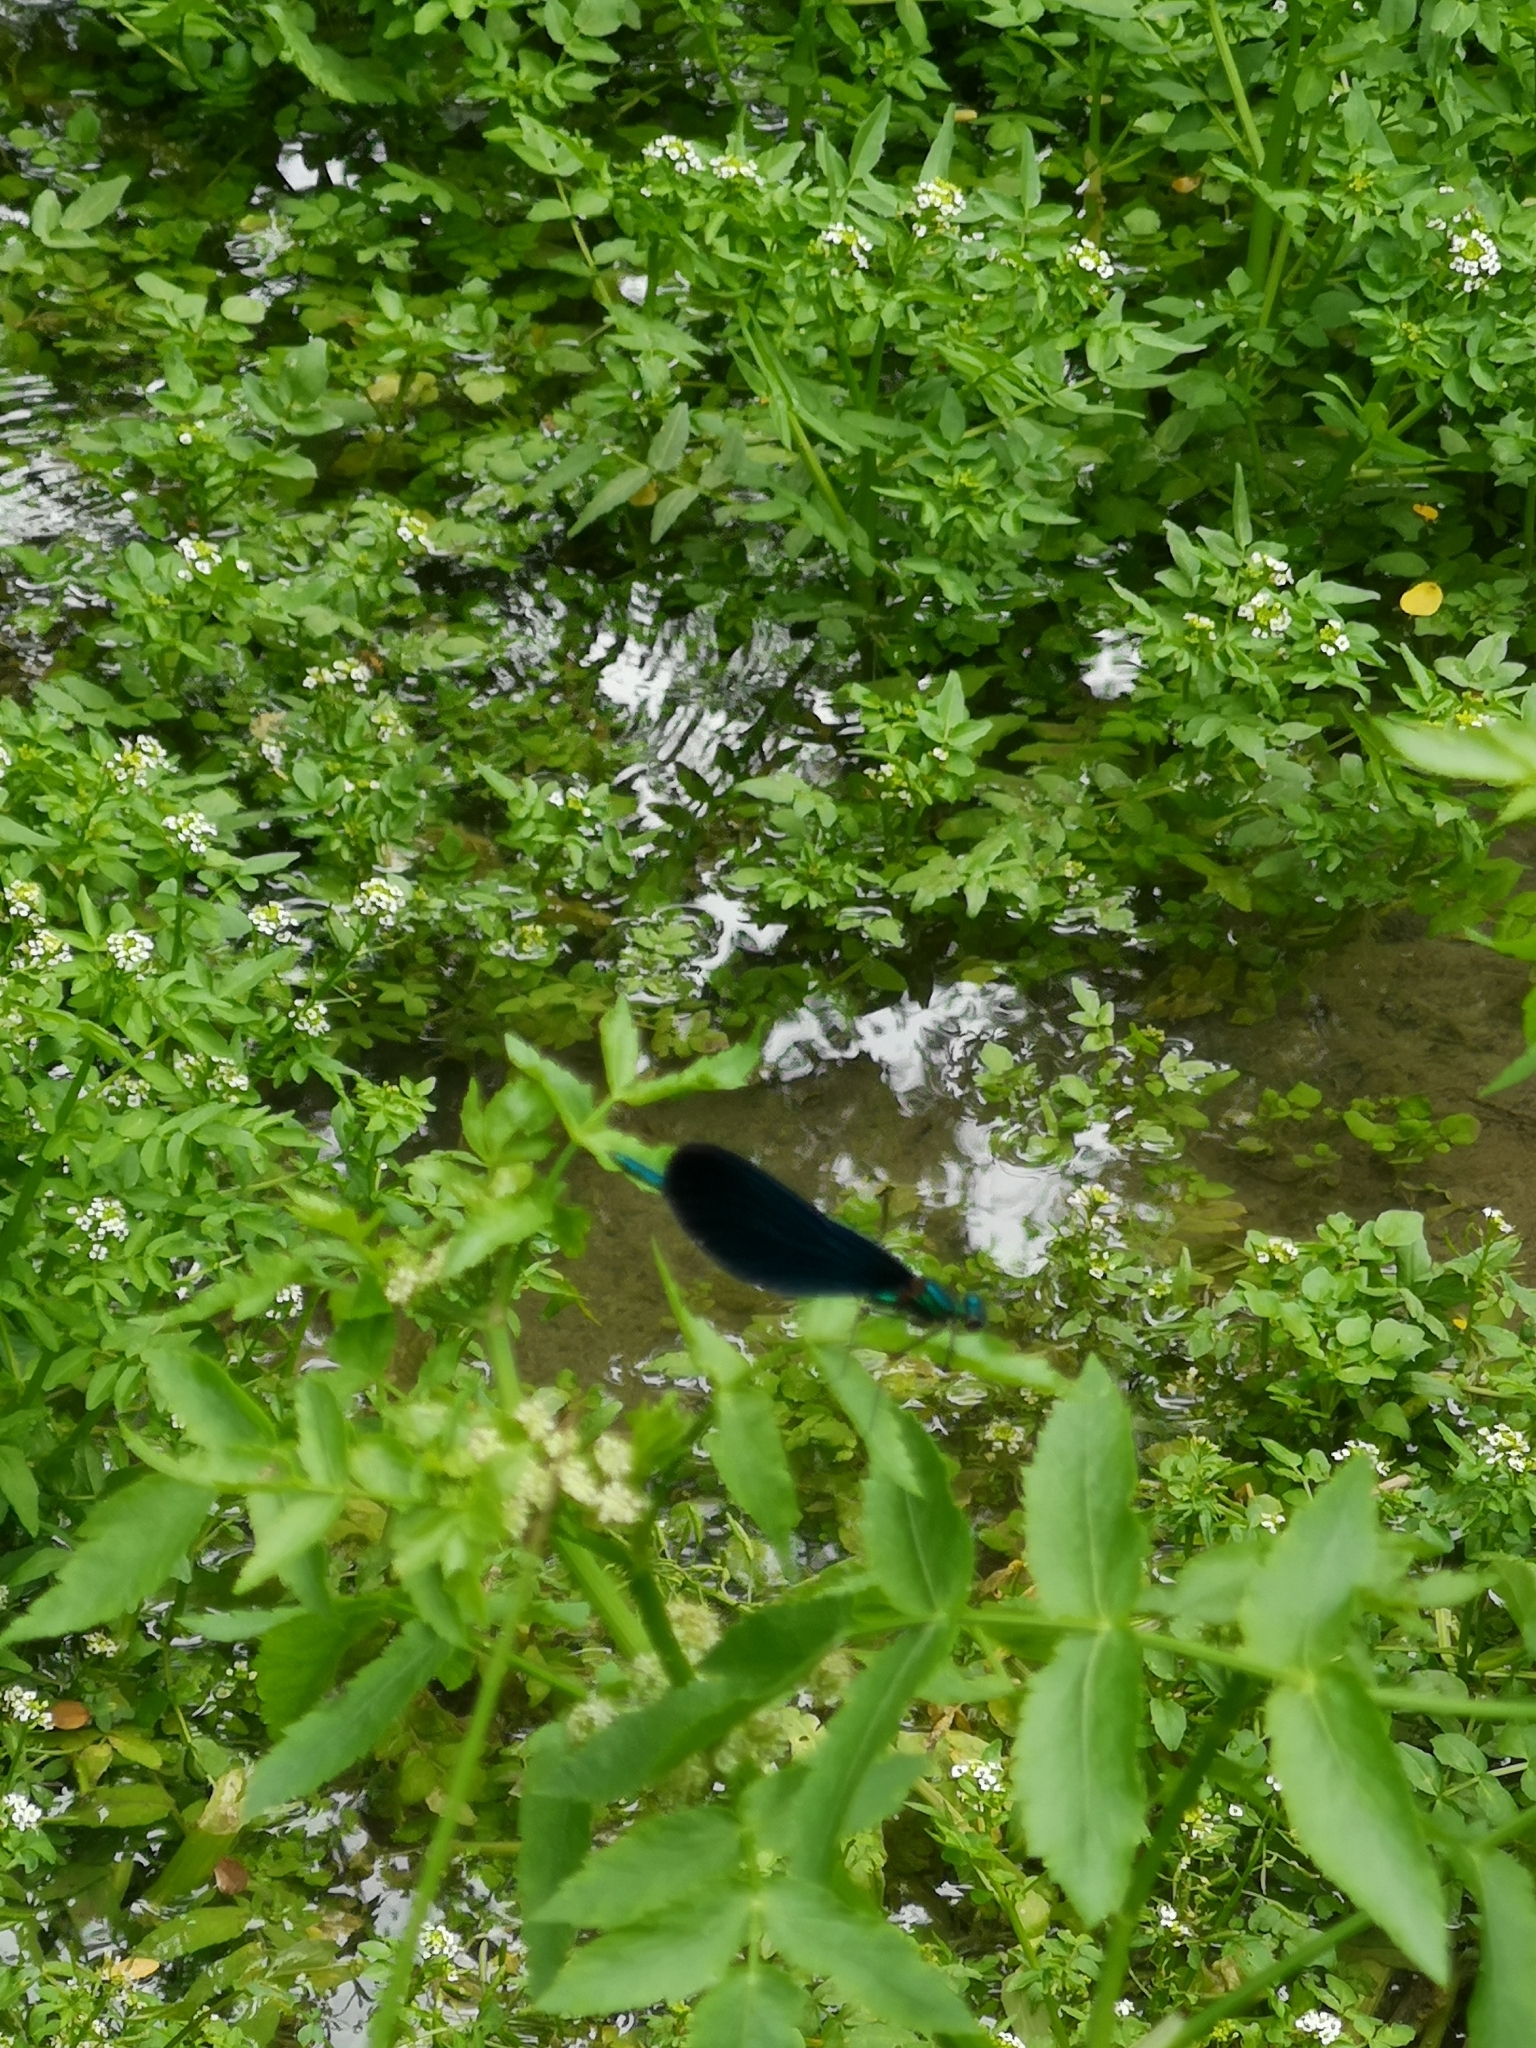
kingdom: Animalia
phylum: Arthropoda
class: Insecta
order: Odonata
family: Calopterygidae
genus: Calopteryx
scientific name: Calopteryx virgo
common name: Beautiful demoiselle
